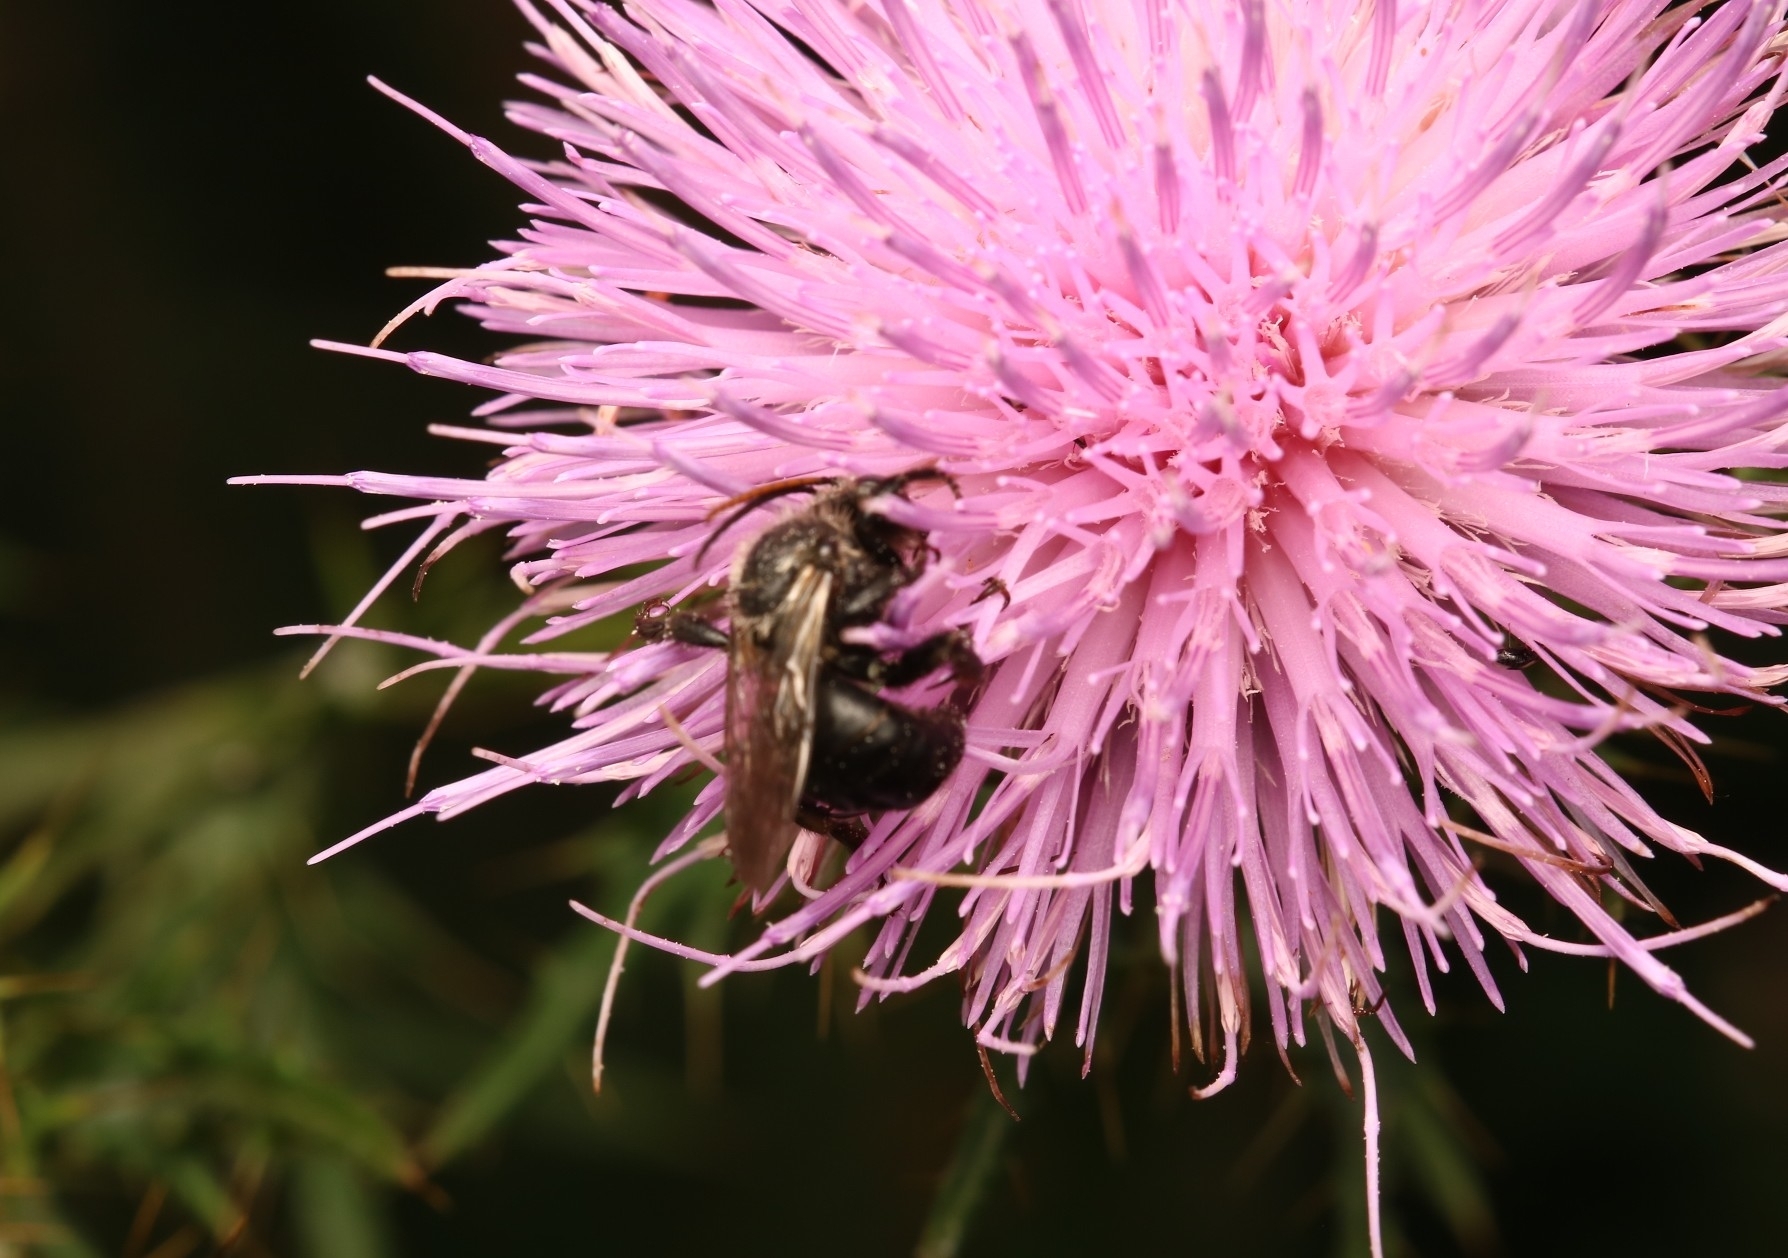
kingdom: Animalia
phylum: Arthropoda
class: Insecta
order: Hymenoptera
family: Apidae
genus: Melissodes
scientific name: Melissodes desponsus
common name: Thistle long-horned bee
